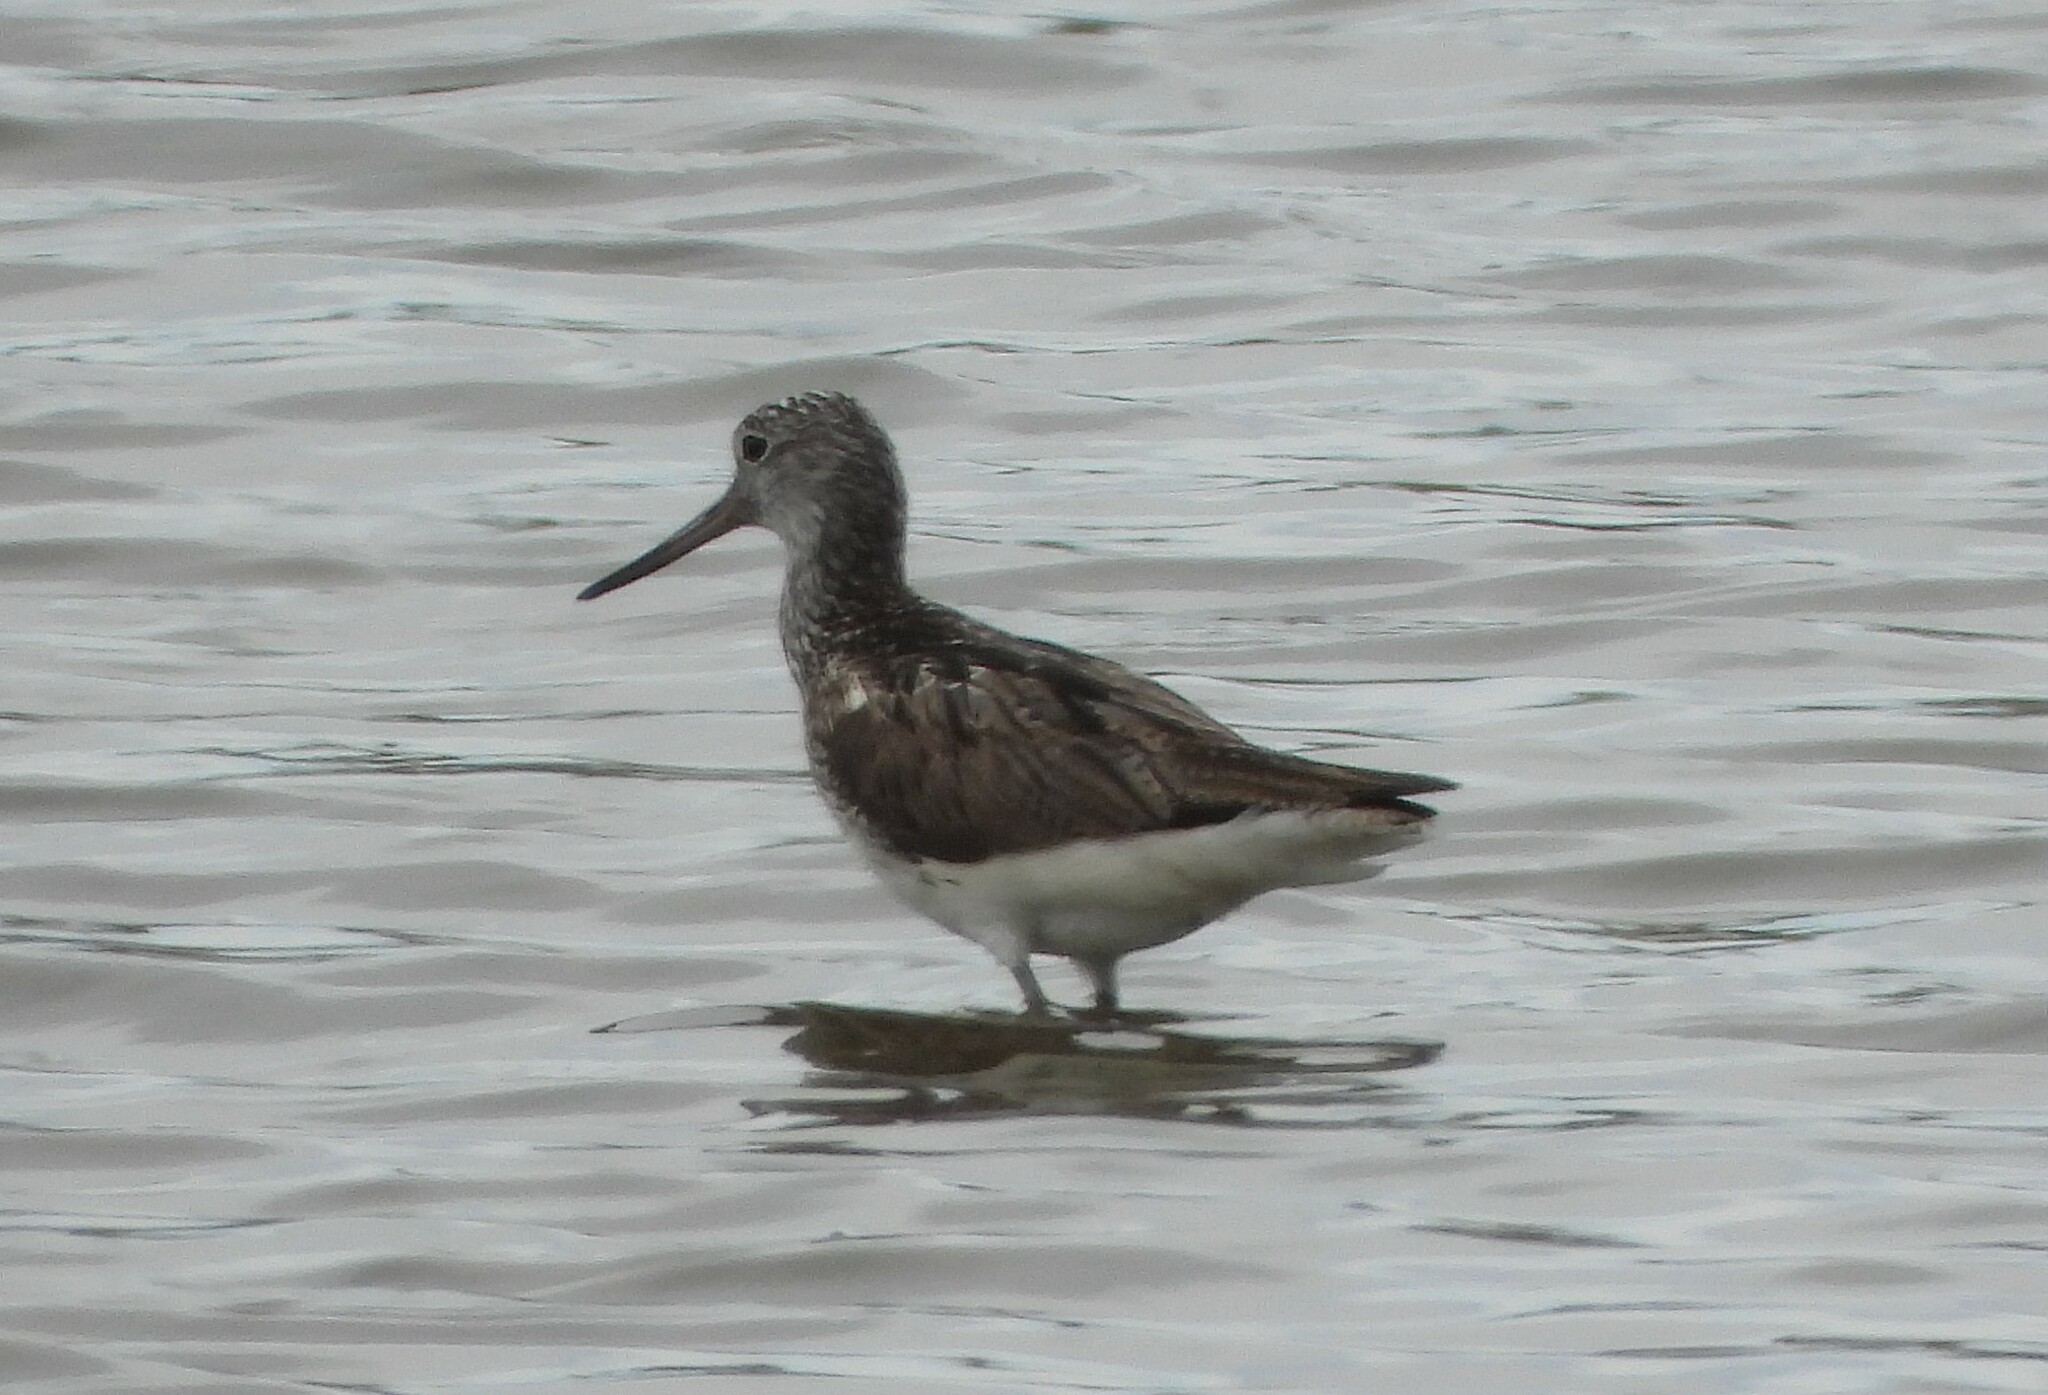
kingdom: Animalia
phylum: Chordata
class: Aves
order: Charadriiformes
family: Scolopacidae
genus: Tringa
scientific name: Tringa nebularia
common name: Common greenshank
